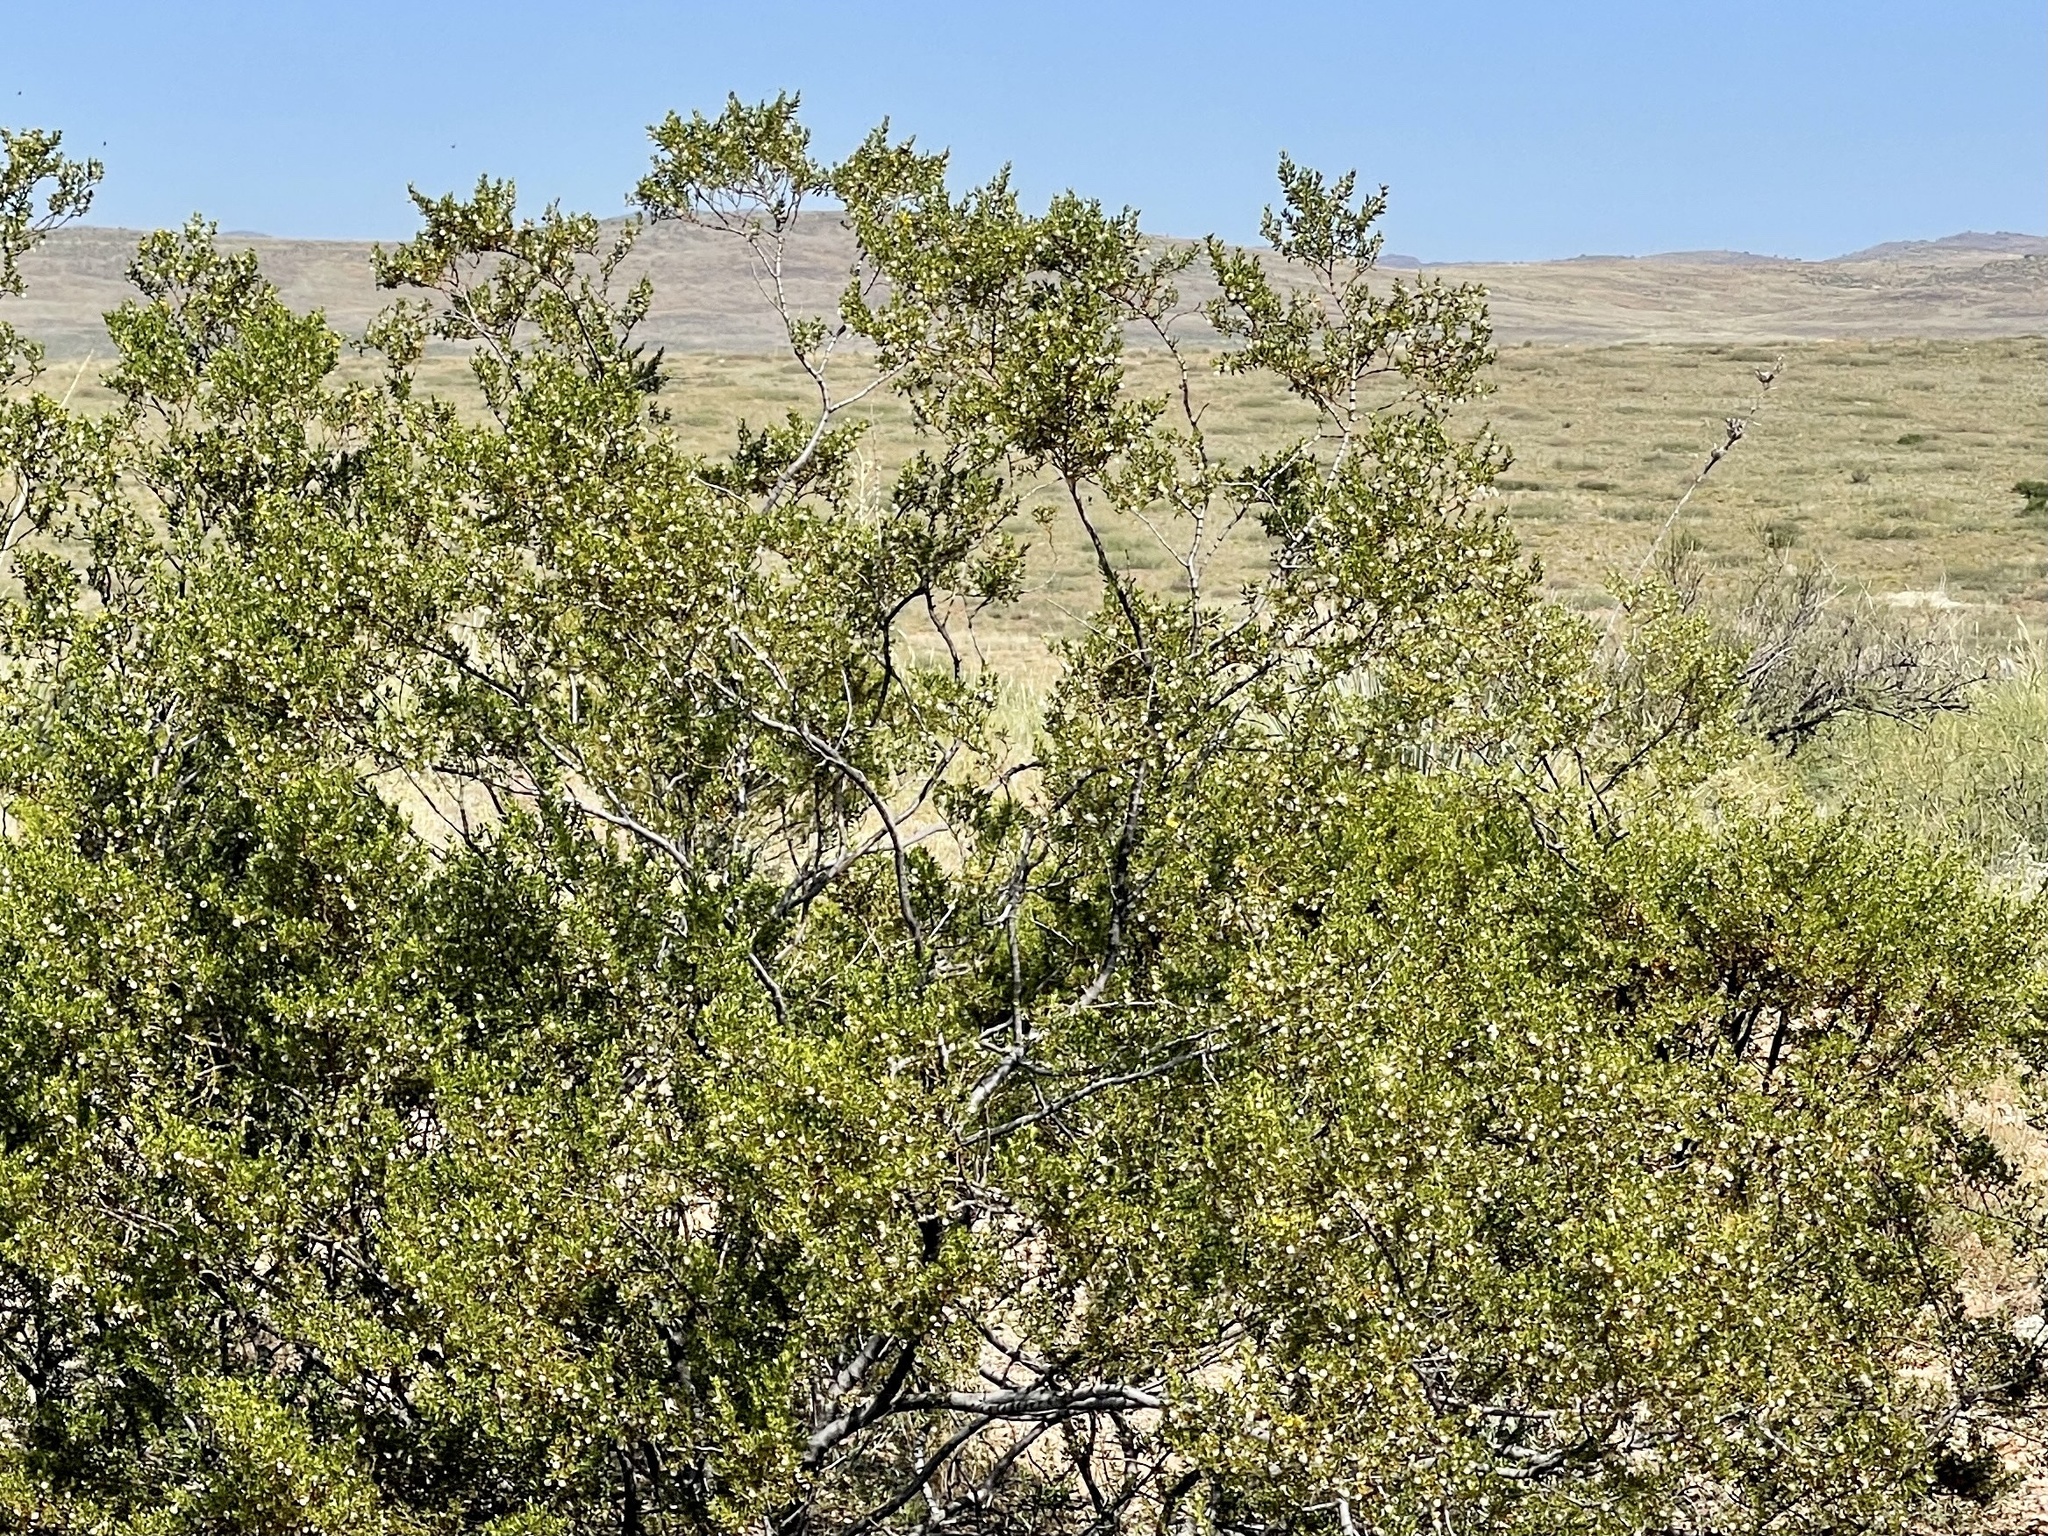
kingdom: Plantae
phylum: Tracheophyta
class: Magnoliopsida
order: Zygophyllales
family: Zygophyllaceae
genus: Larrea
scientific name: Larrea tridentata
